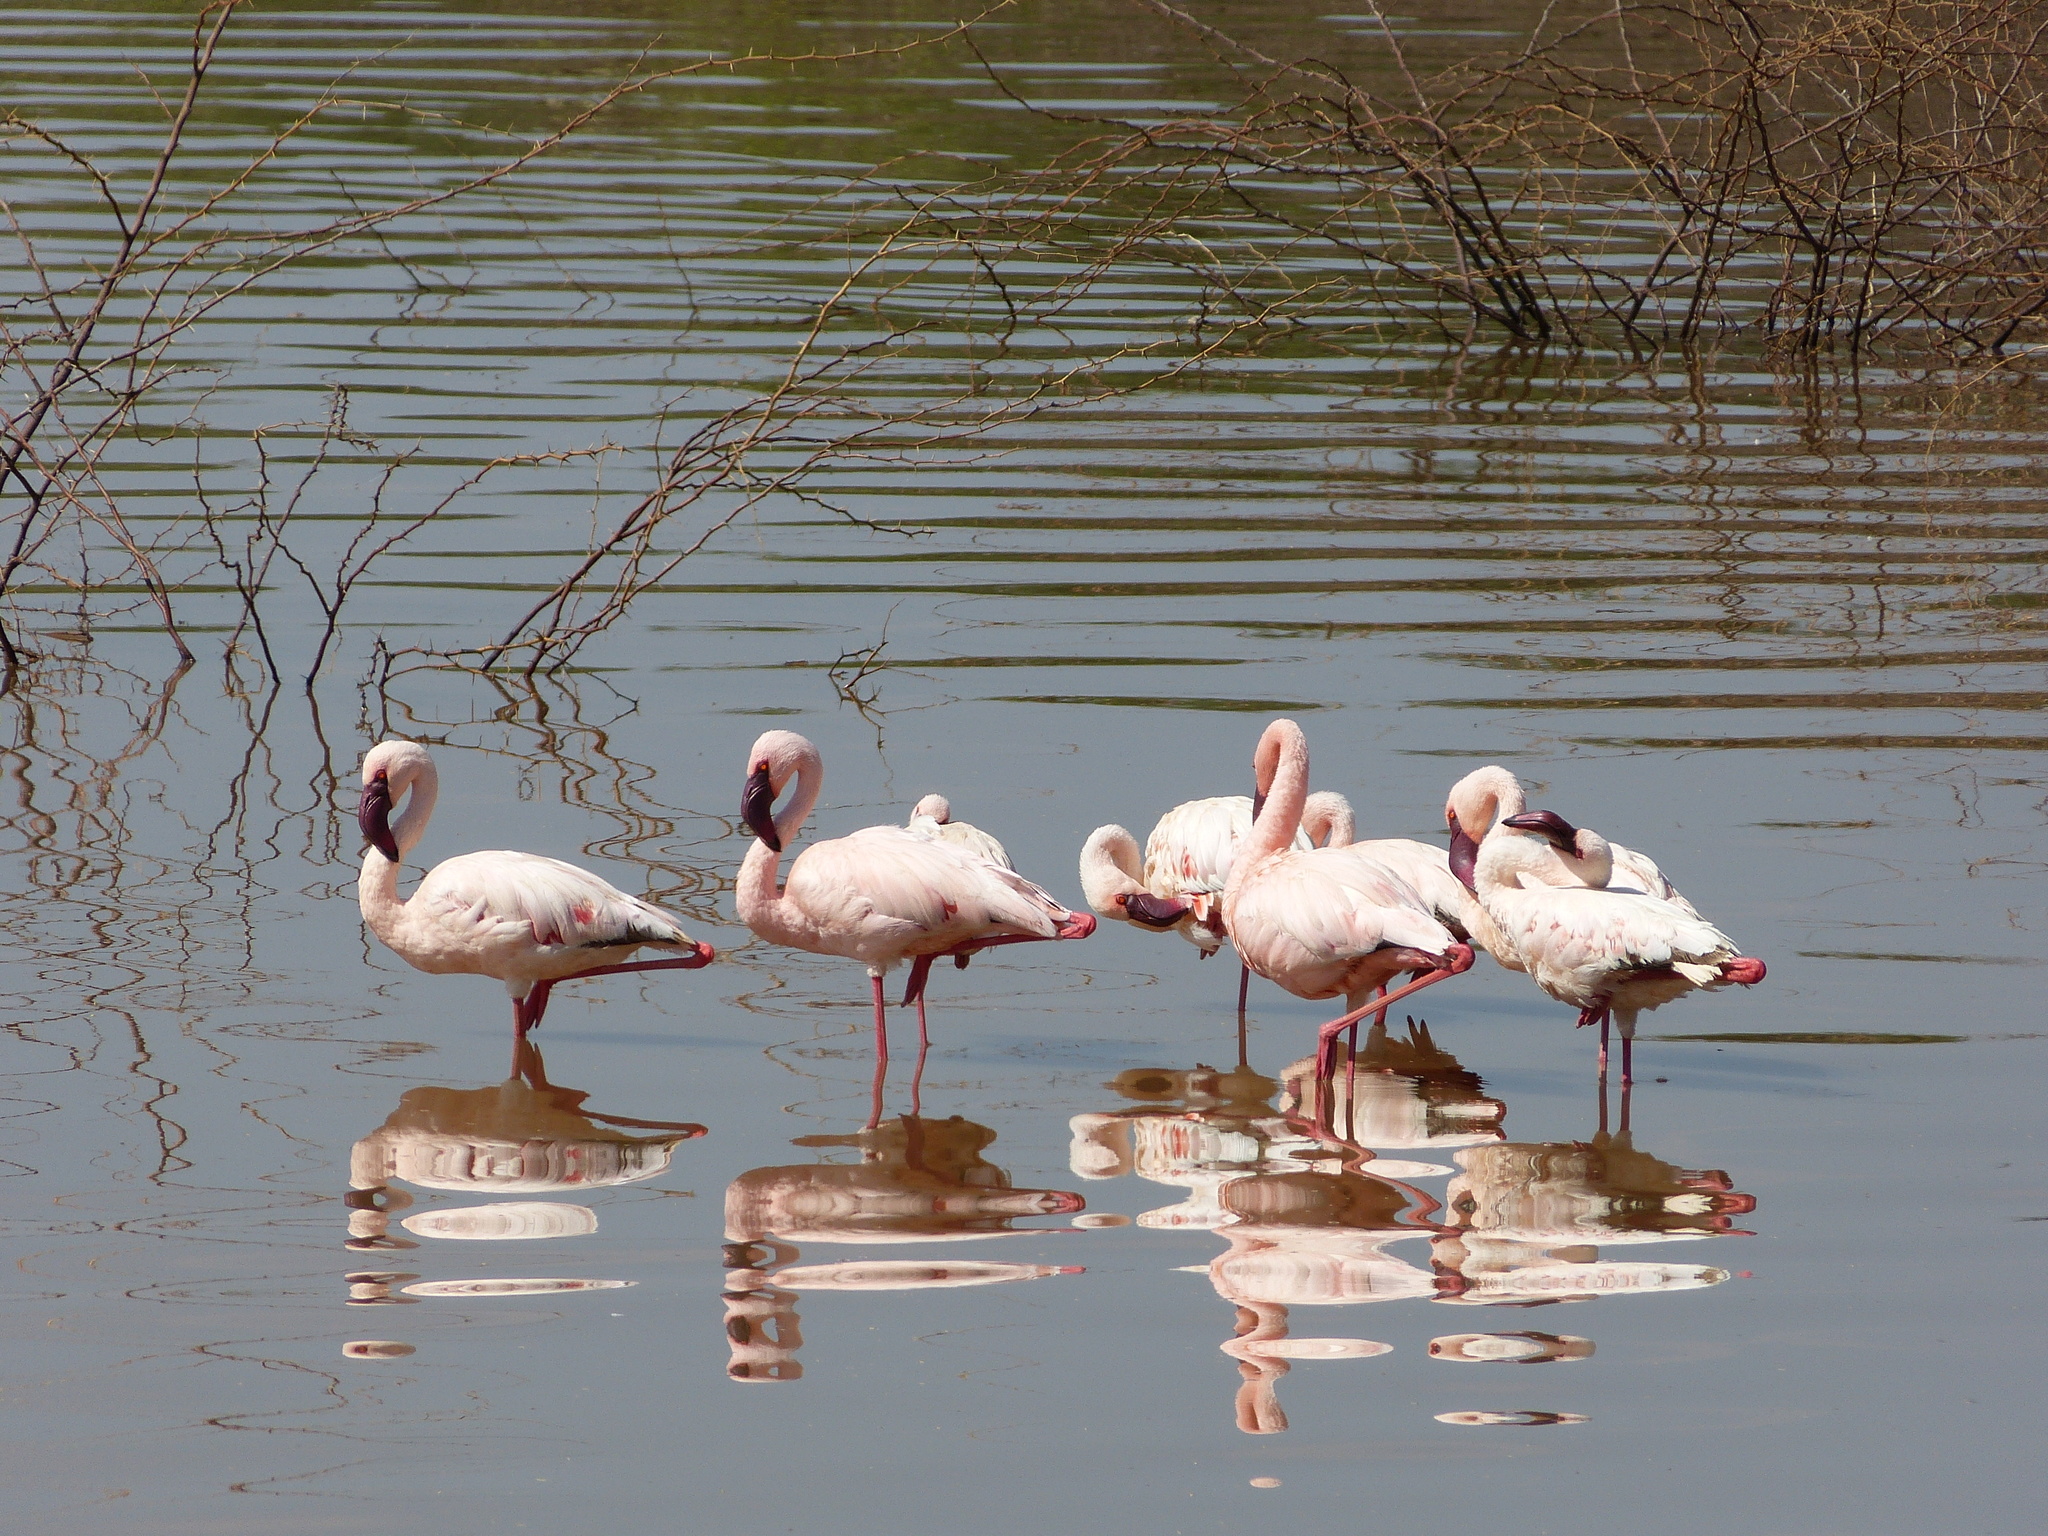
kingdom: Animalia
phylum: Chordata
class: Aves
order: Phoenicopteriformes
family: Phoenicopteridae
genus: Phoeniconaias
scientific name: Phoeniconaias minor
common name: Lesser flamingo
